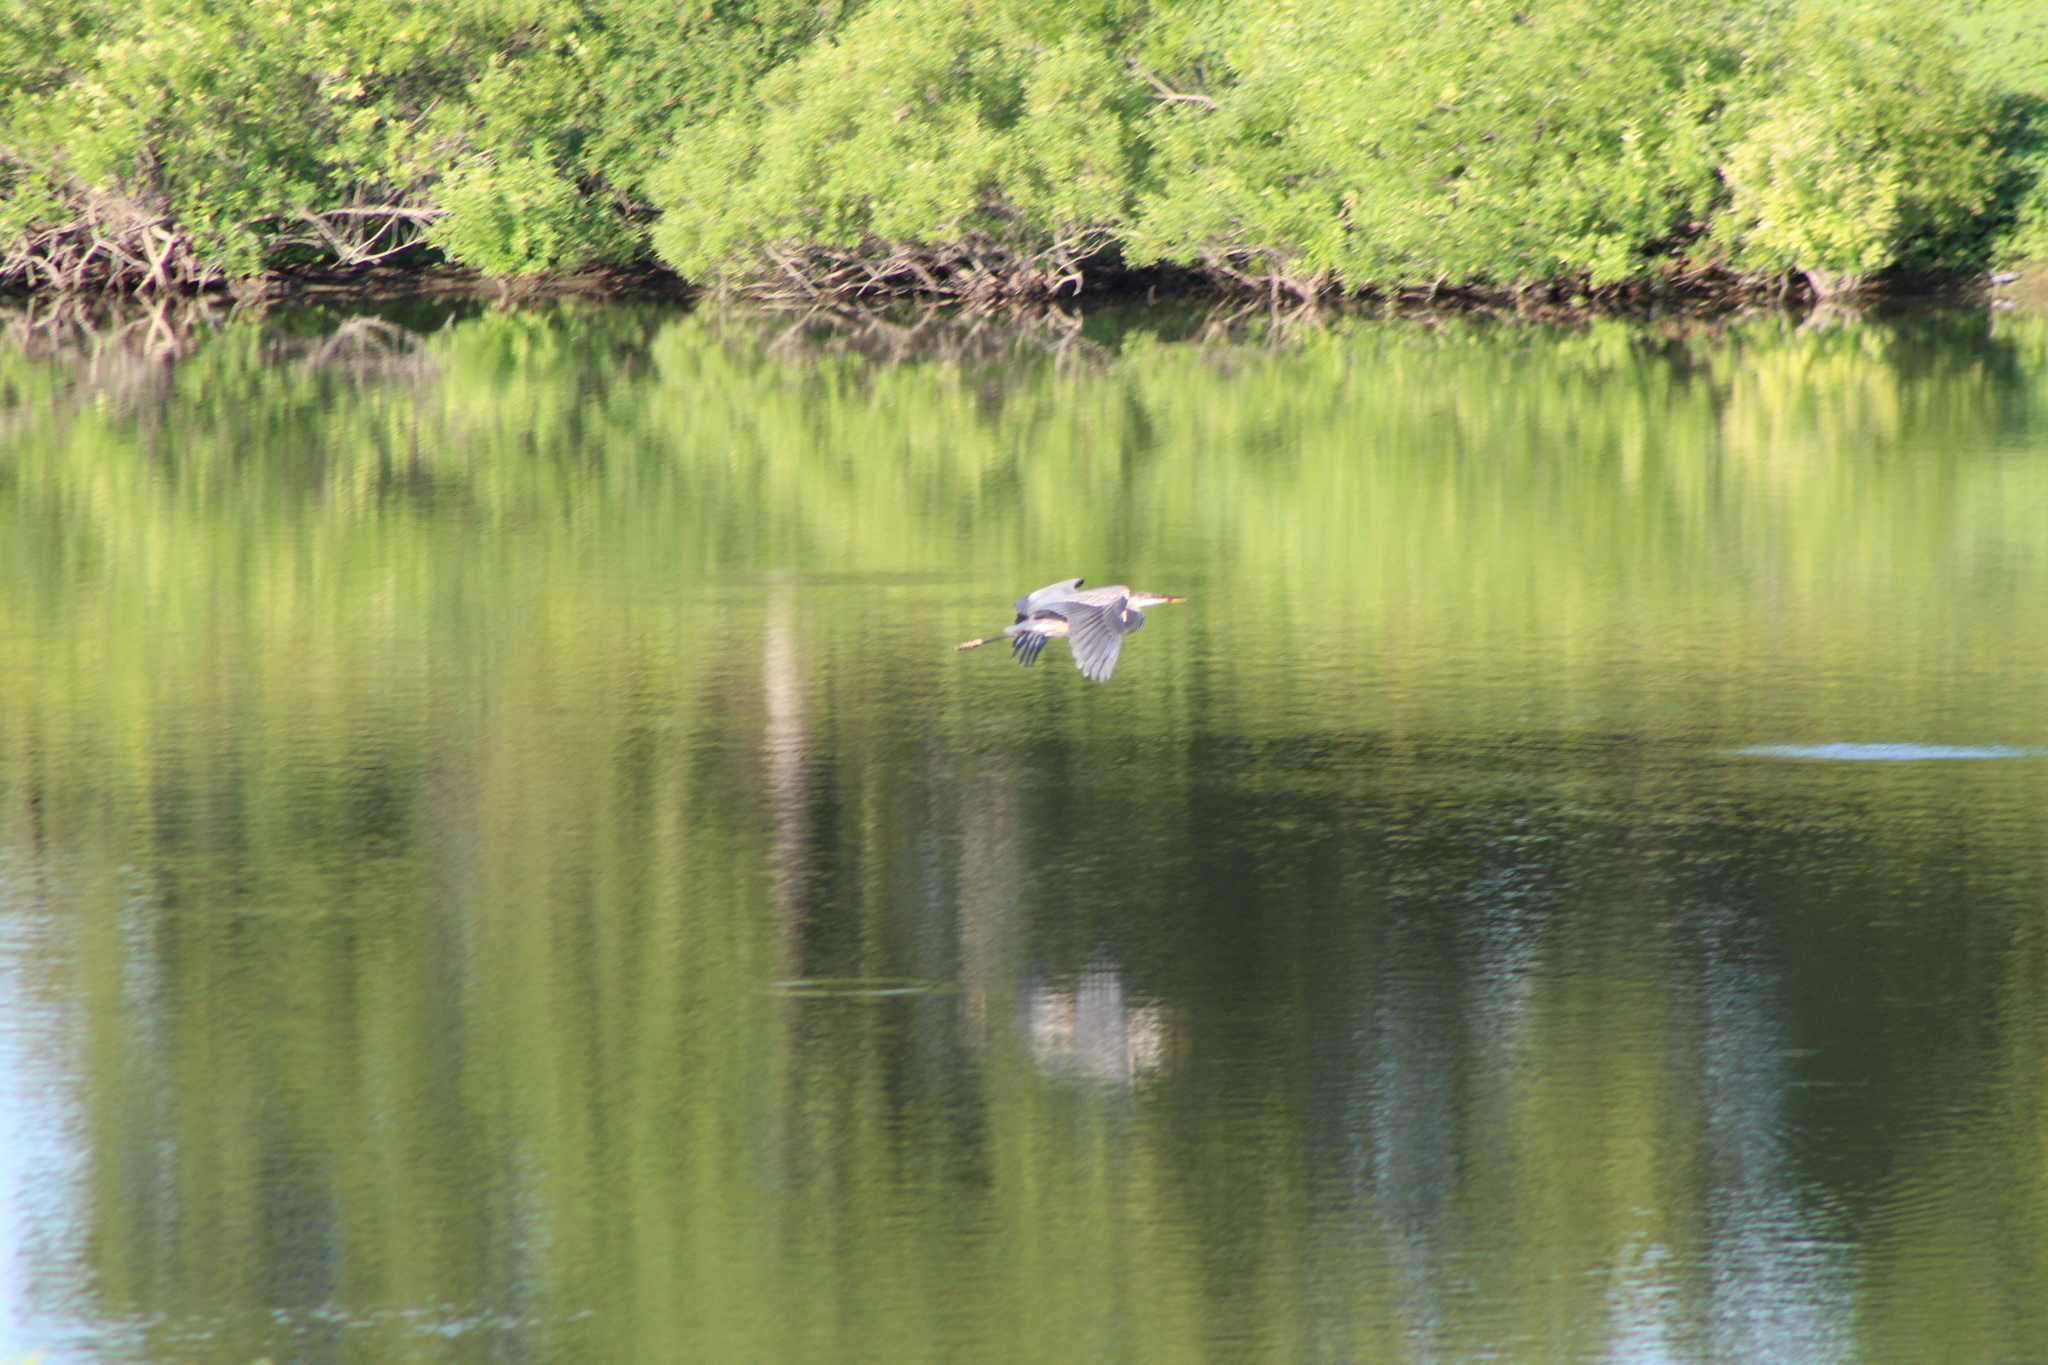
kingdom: Animalia
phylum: Chordata
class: Aves
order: Pelecaniformes
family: Ardeidae
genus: Ardea
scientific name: Ardea herodias
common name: Great blue heron
